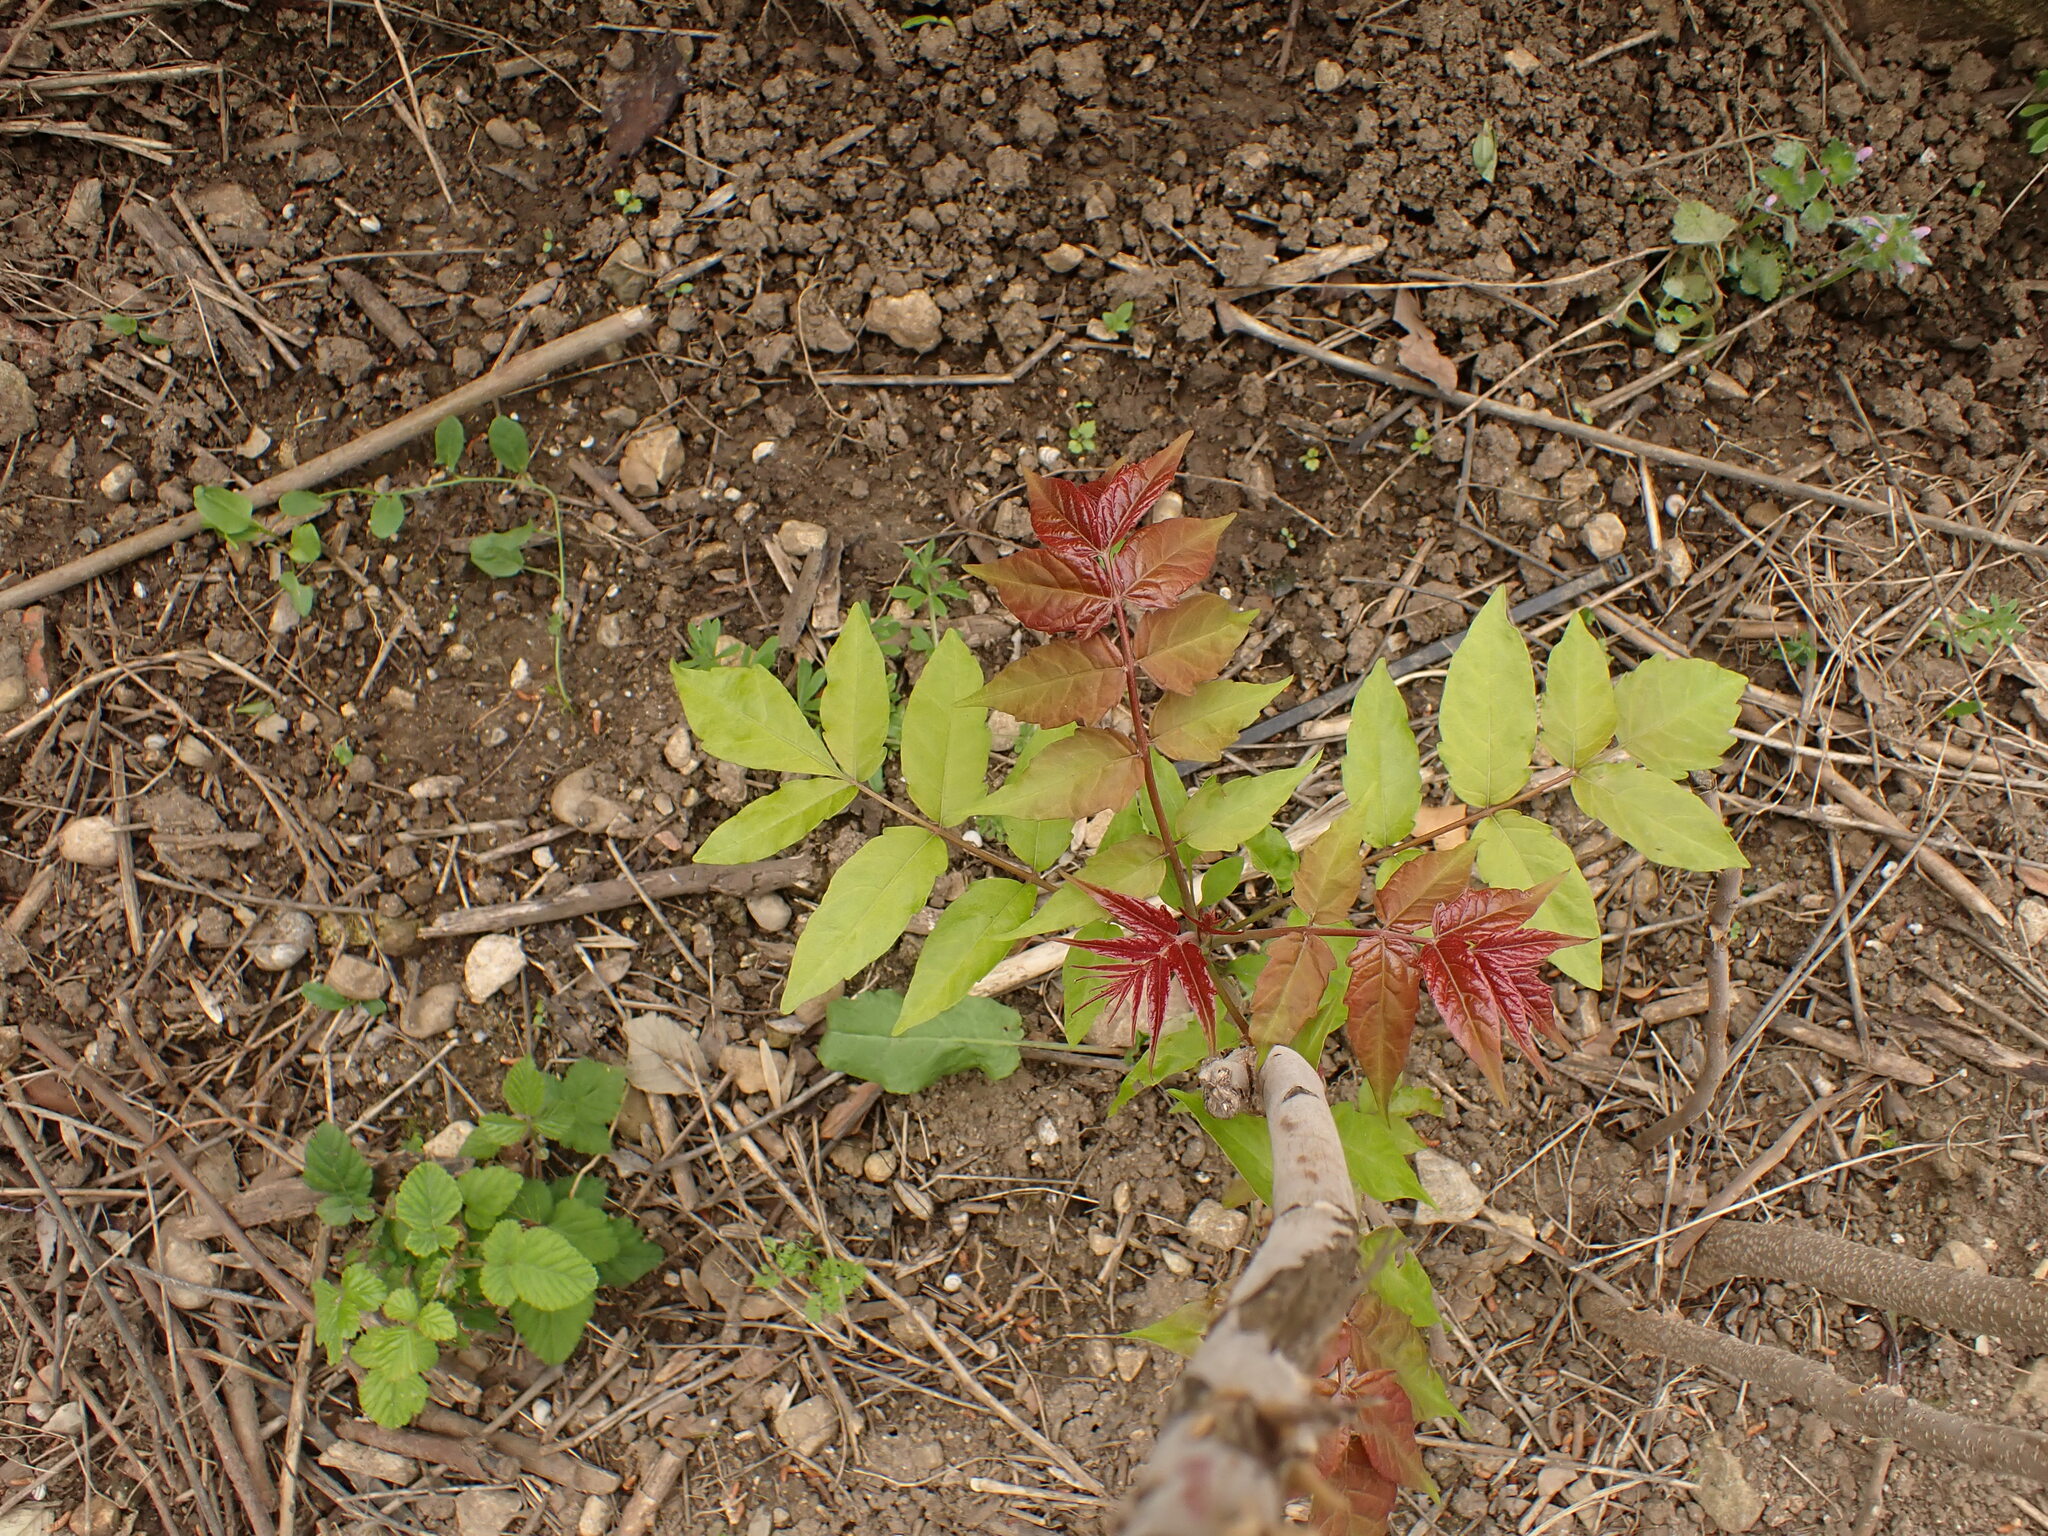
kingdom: Plantae
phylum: Tracheophyta
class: Magnoliopsida
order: Sapindales
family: Simaroubaceae
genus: Ailanthus
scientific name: Ailanthus altissima
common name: Tree-of-heaven
